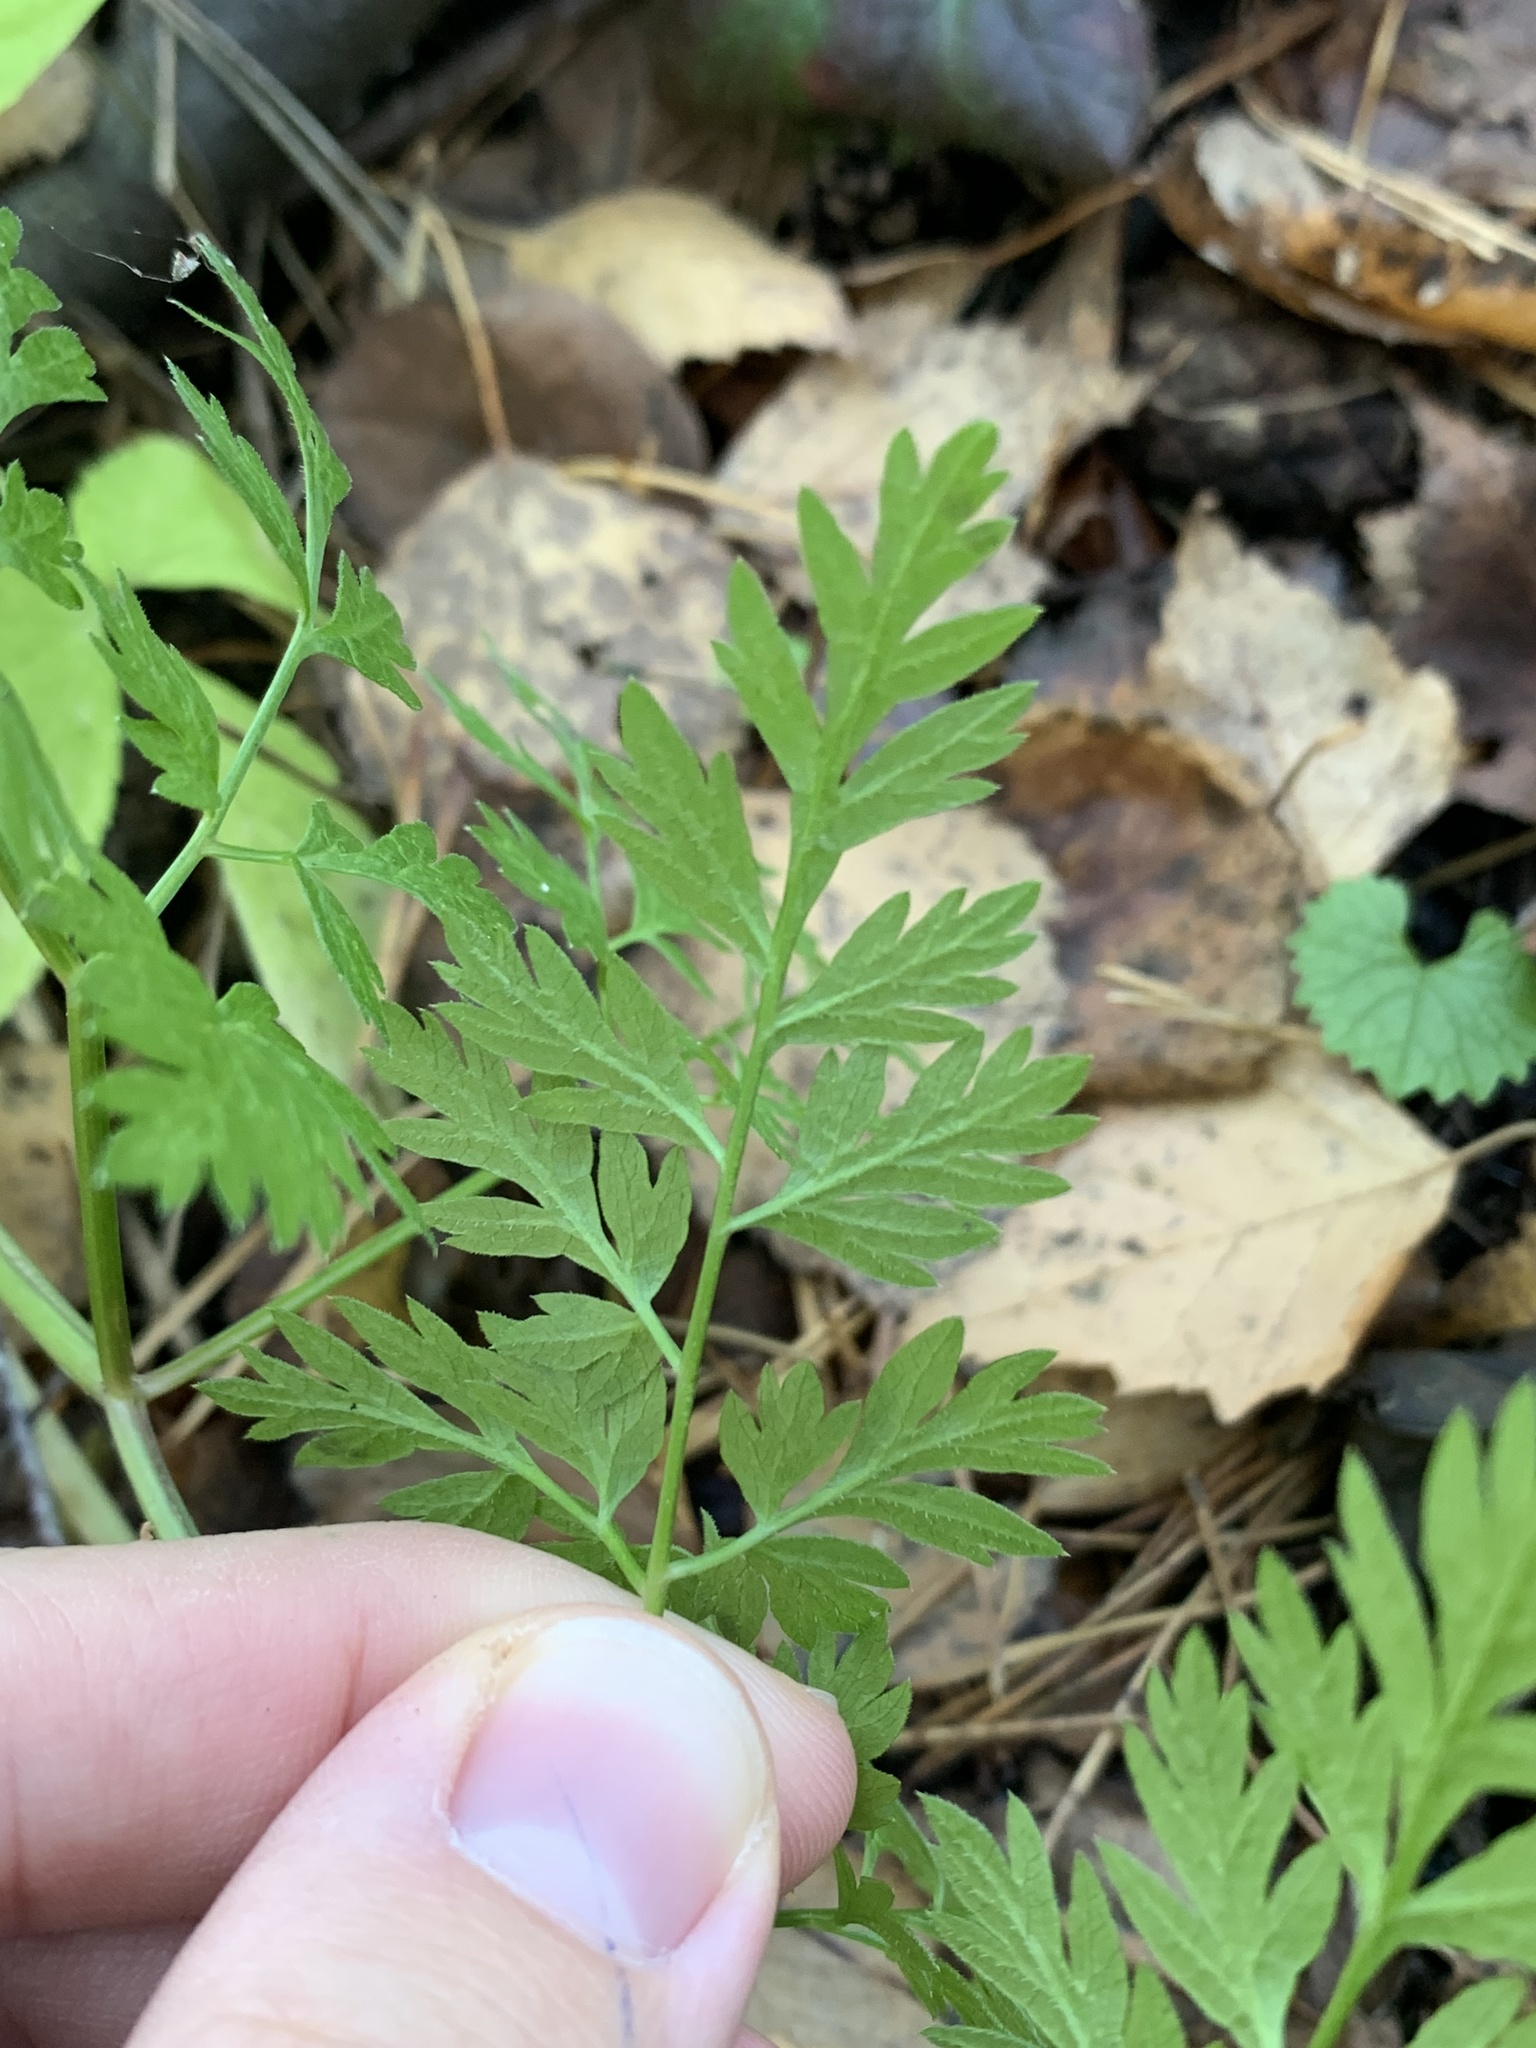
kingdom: Plantae
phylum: Tracheophyta
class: Magnoliopsida
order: Apiales
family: Apiaceae
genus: Anthriscus
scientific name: Anthriscus sylvestris
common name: Cow parsley
